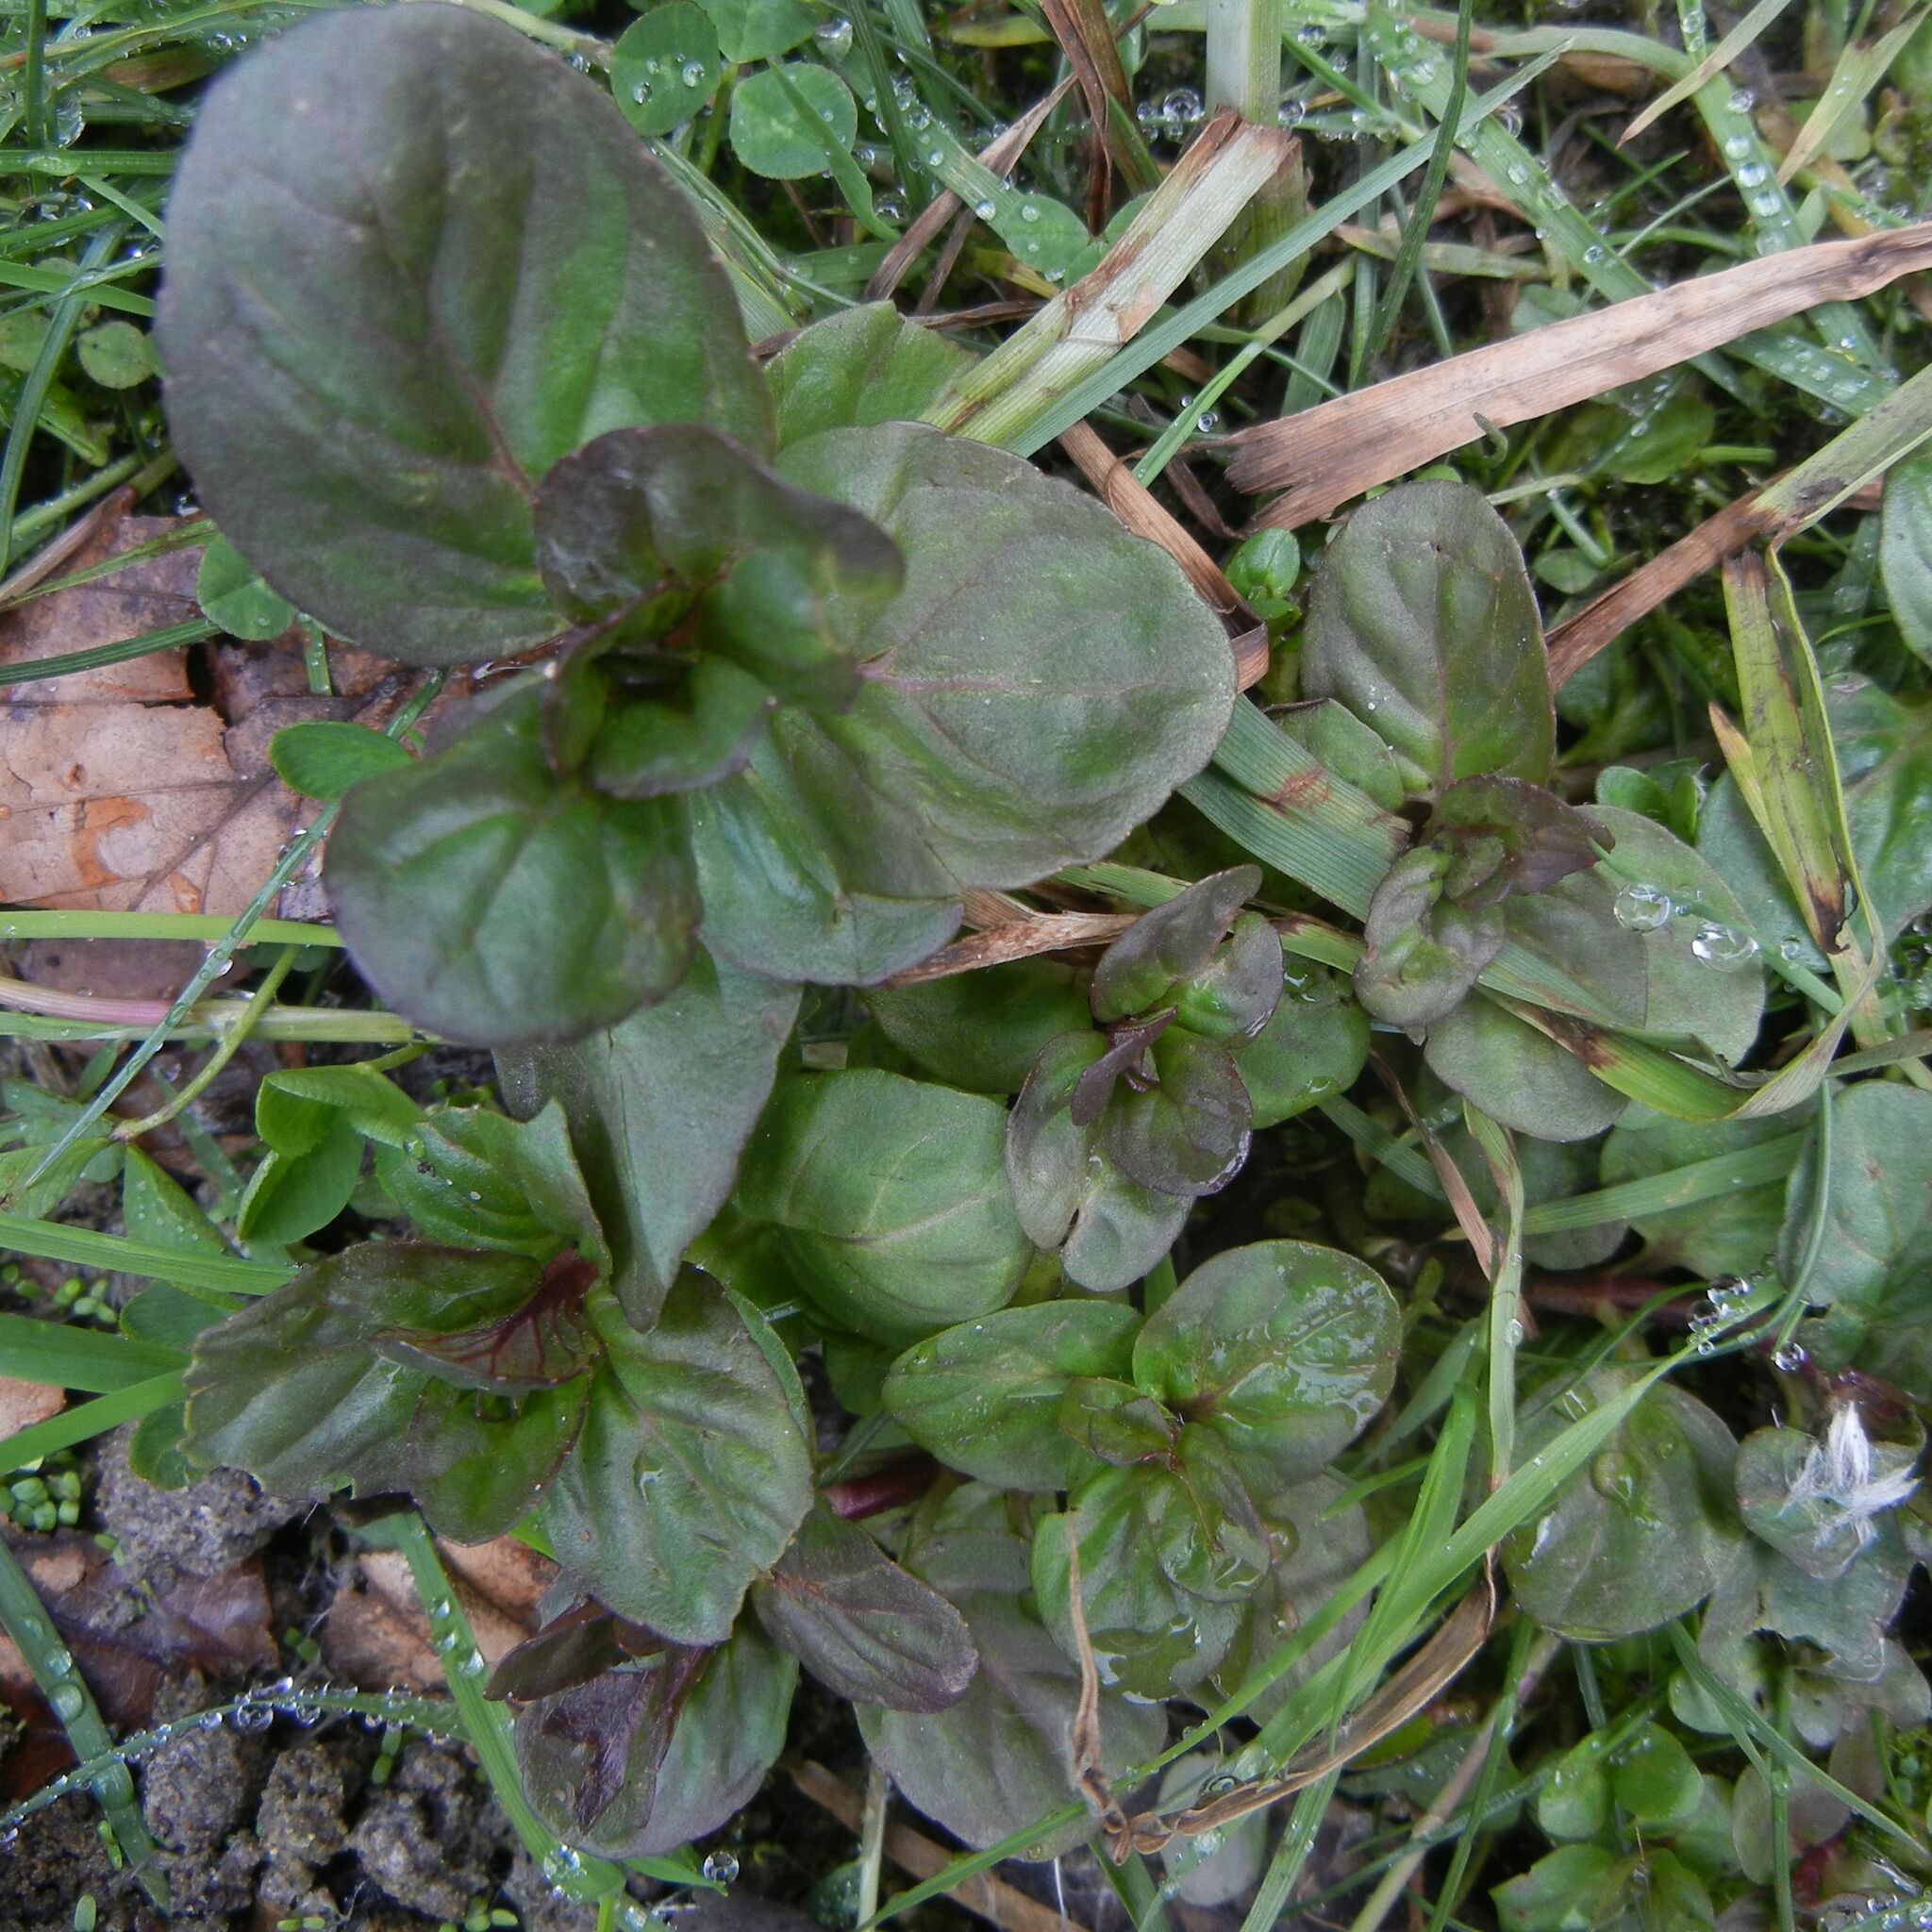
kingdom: Plantae
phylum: Tracheophyta
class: Magnoliopsida
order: Lamiales
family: Lamiaceae
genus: Mentha
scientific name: Mentha aquatica
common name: Water mint
